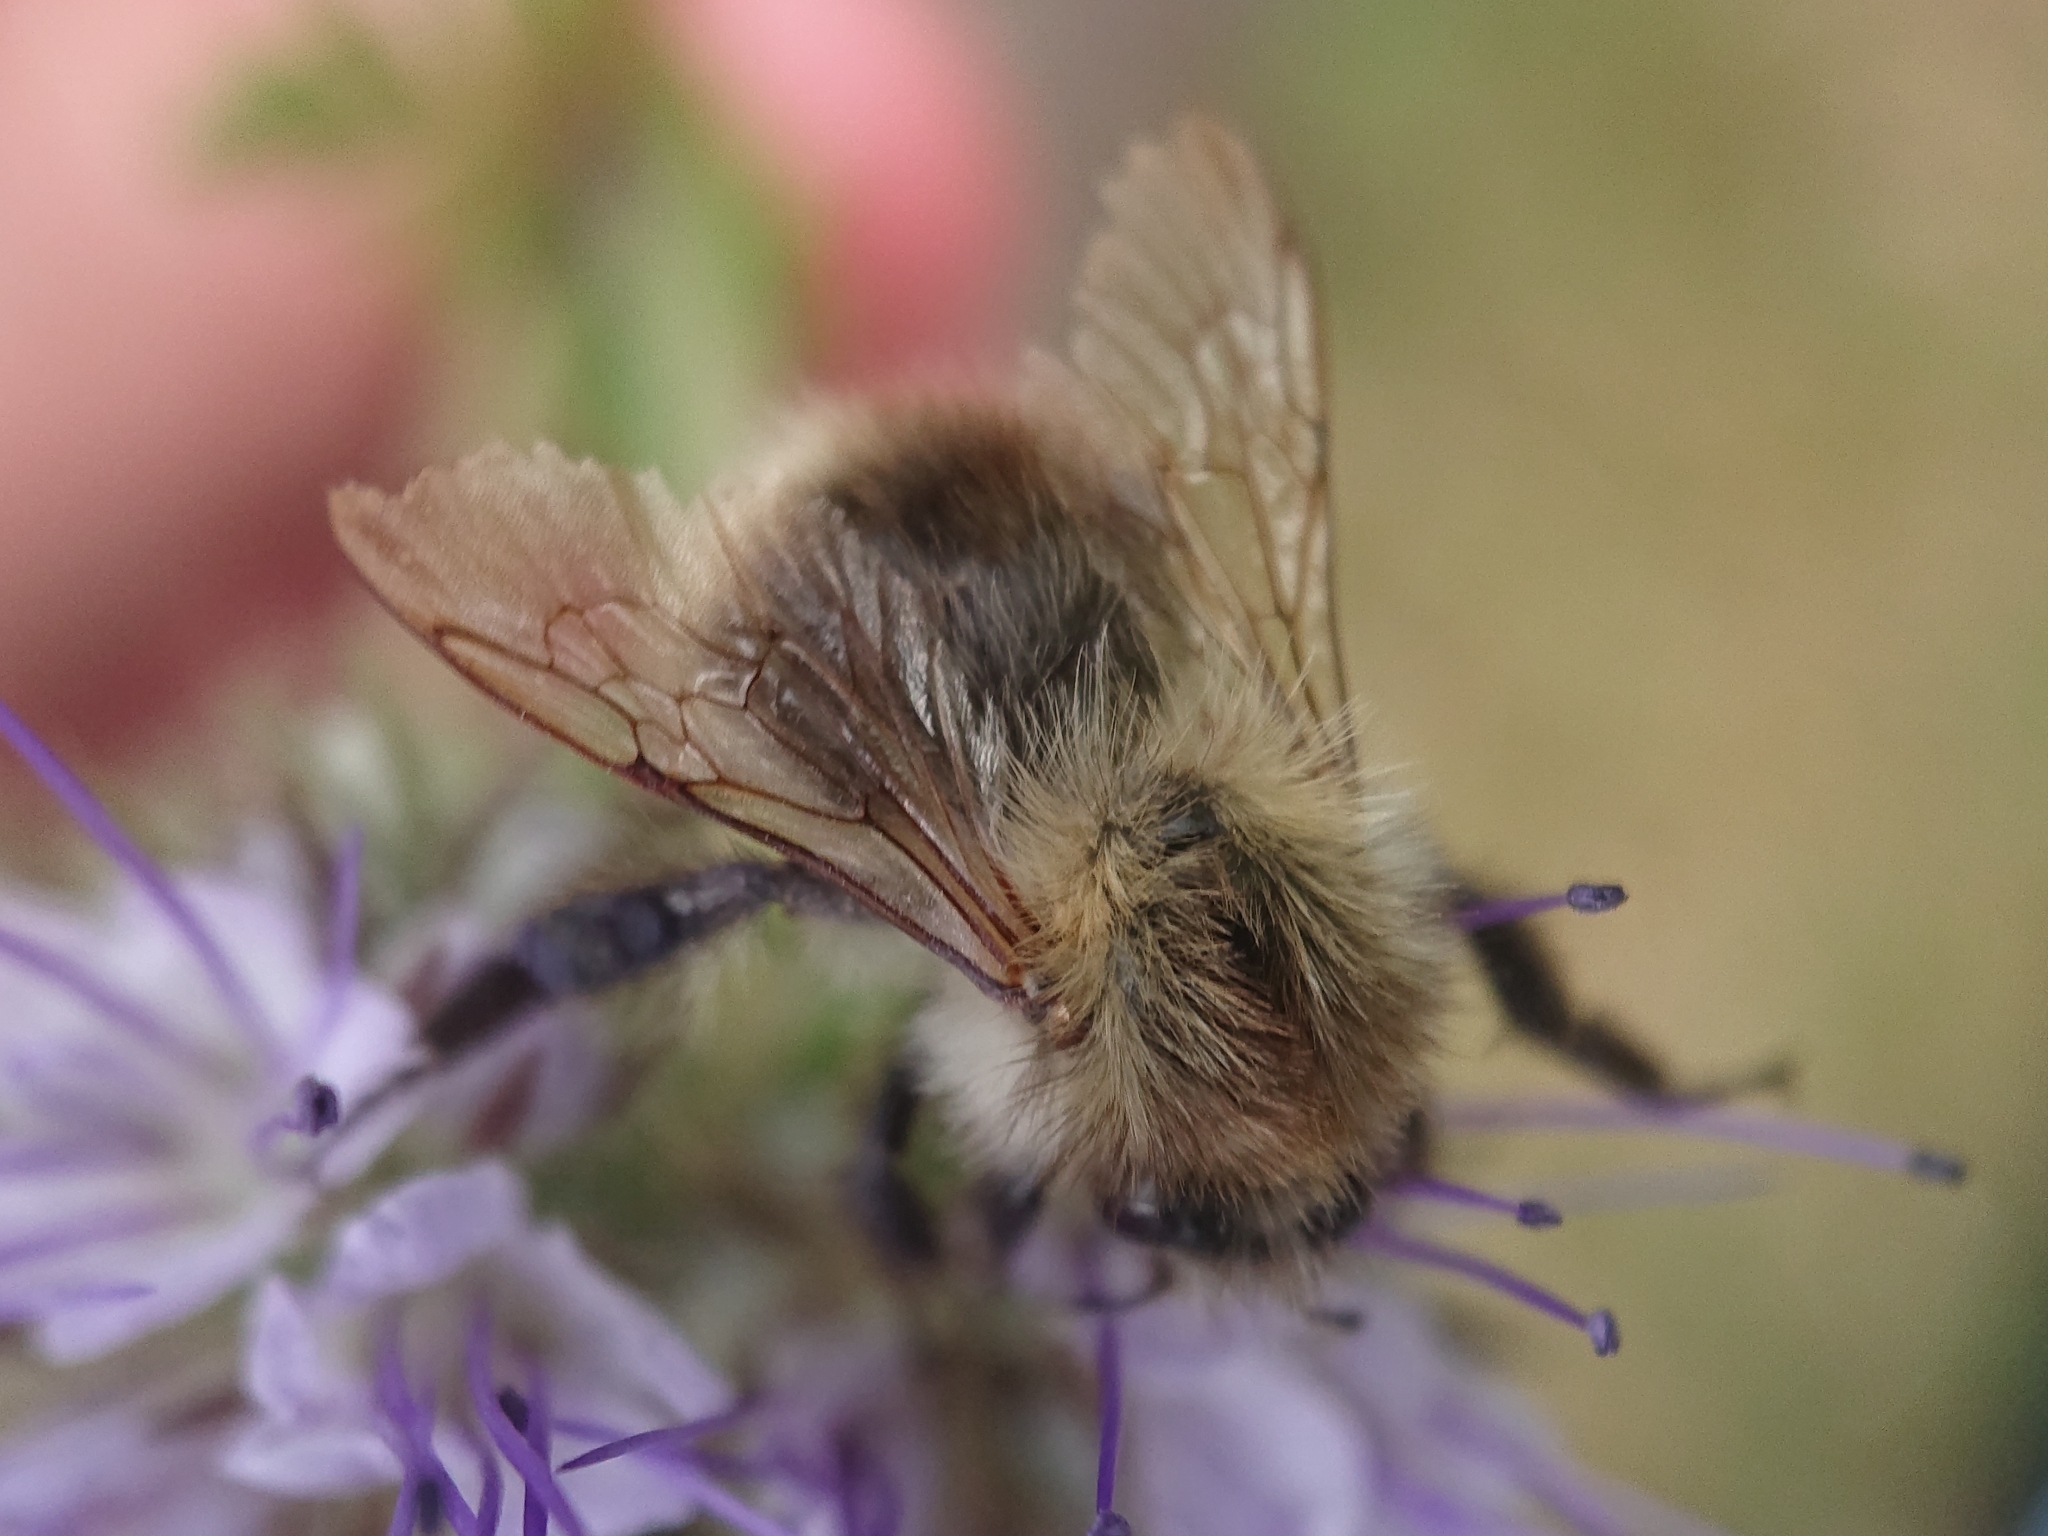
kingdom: Animalia
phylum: Arthropoda
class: Insecta
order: Hymenoptera
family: Apidae
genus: Bombus
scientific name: Bombus pascuorum
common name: Common carder bee
